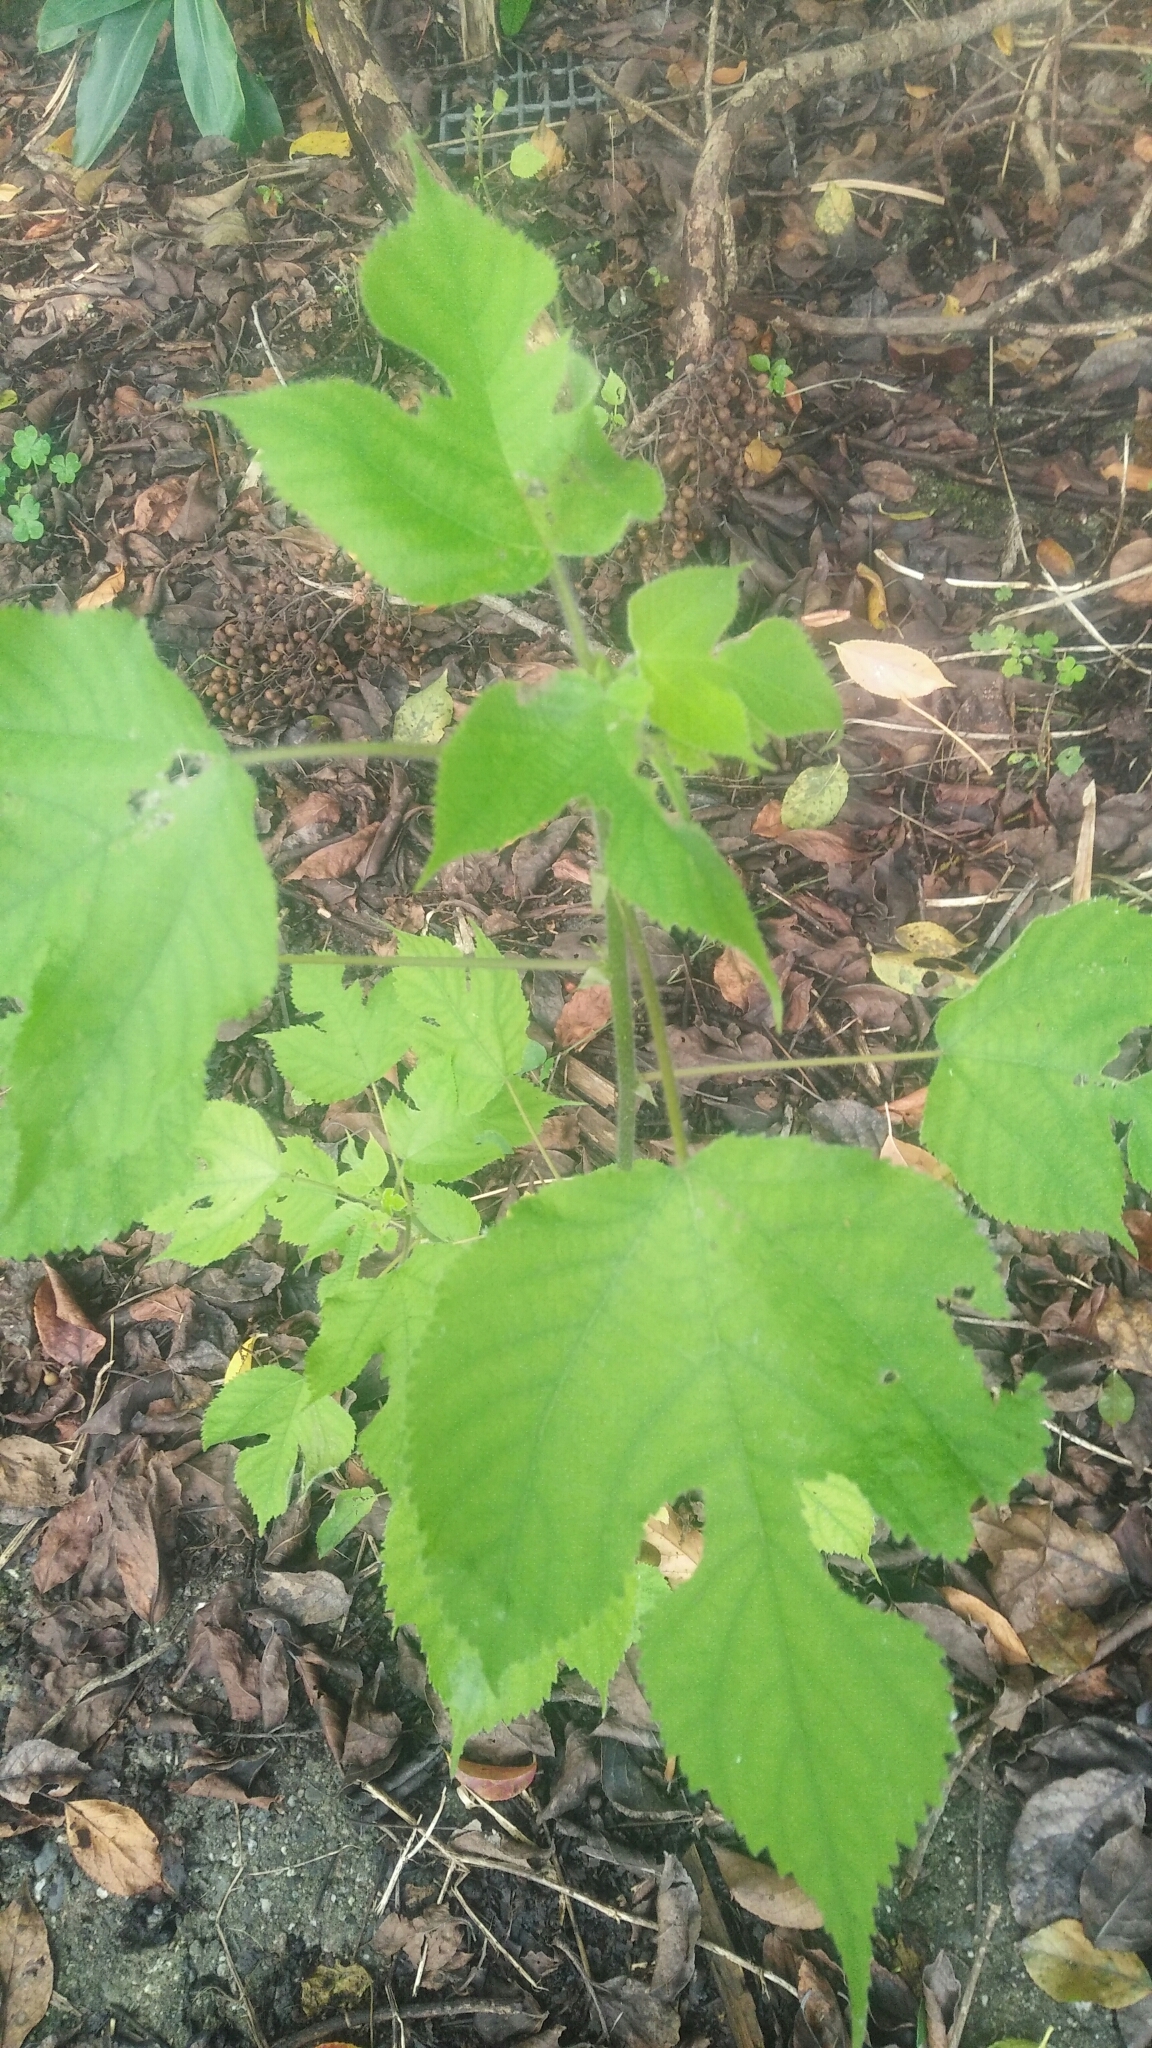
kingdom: Plantae
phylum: Tracheophyta
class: Magnoliopsida
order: Rosales
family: Moraceae
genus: Broussonetia
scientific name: Broussonetia papyrifera
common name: Paper mulberry
